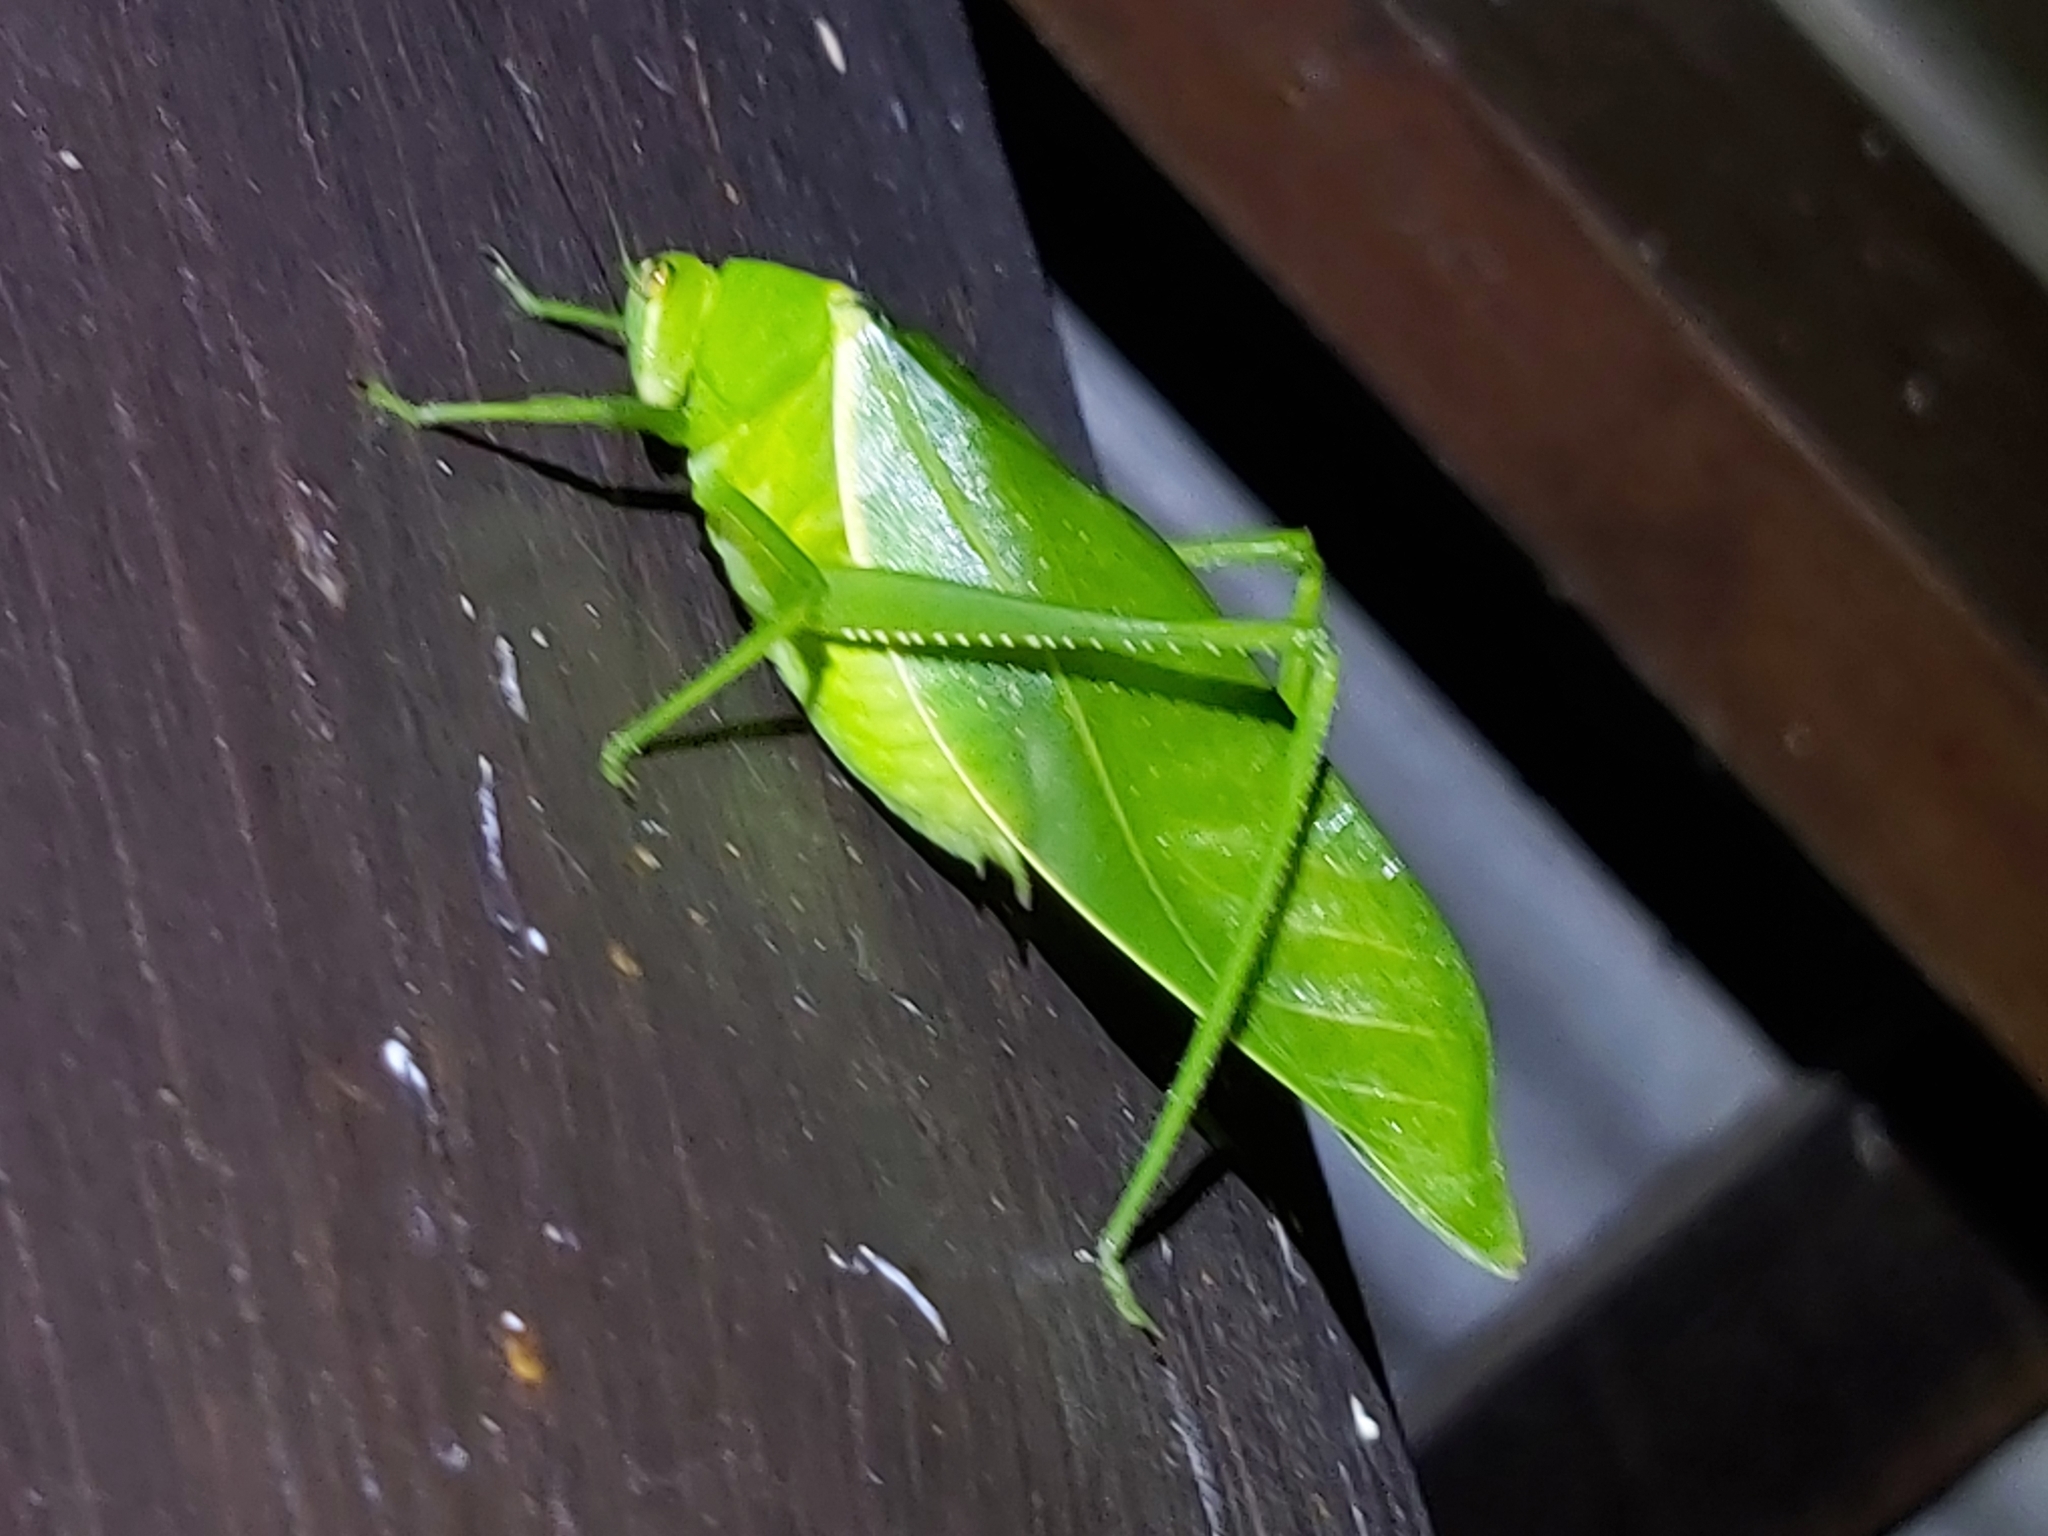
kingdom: Animalia
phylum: Arthropoda
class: Insecta
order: Orthoptera
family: Tettigoniidae
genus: Paracaedicia
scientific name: Paracaedicia serrata
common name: Serrated bush katydid
